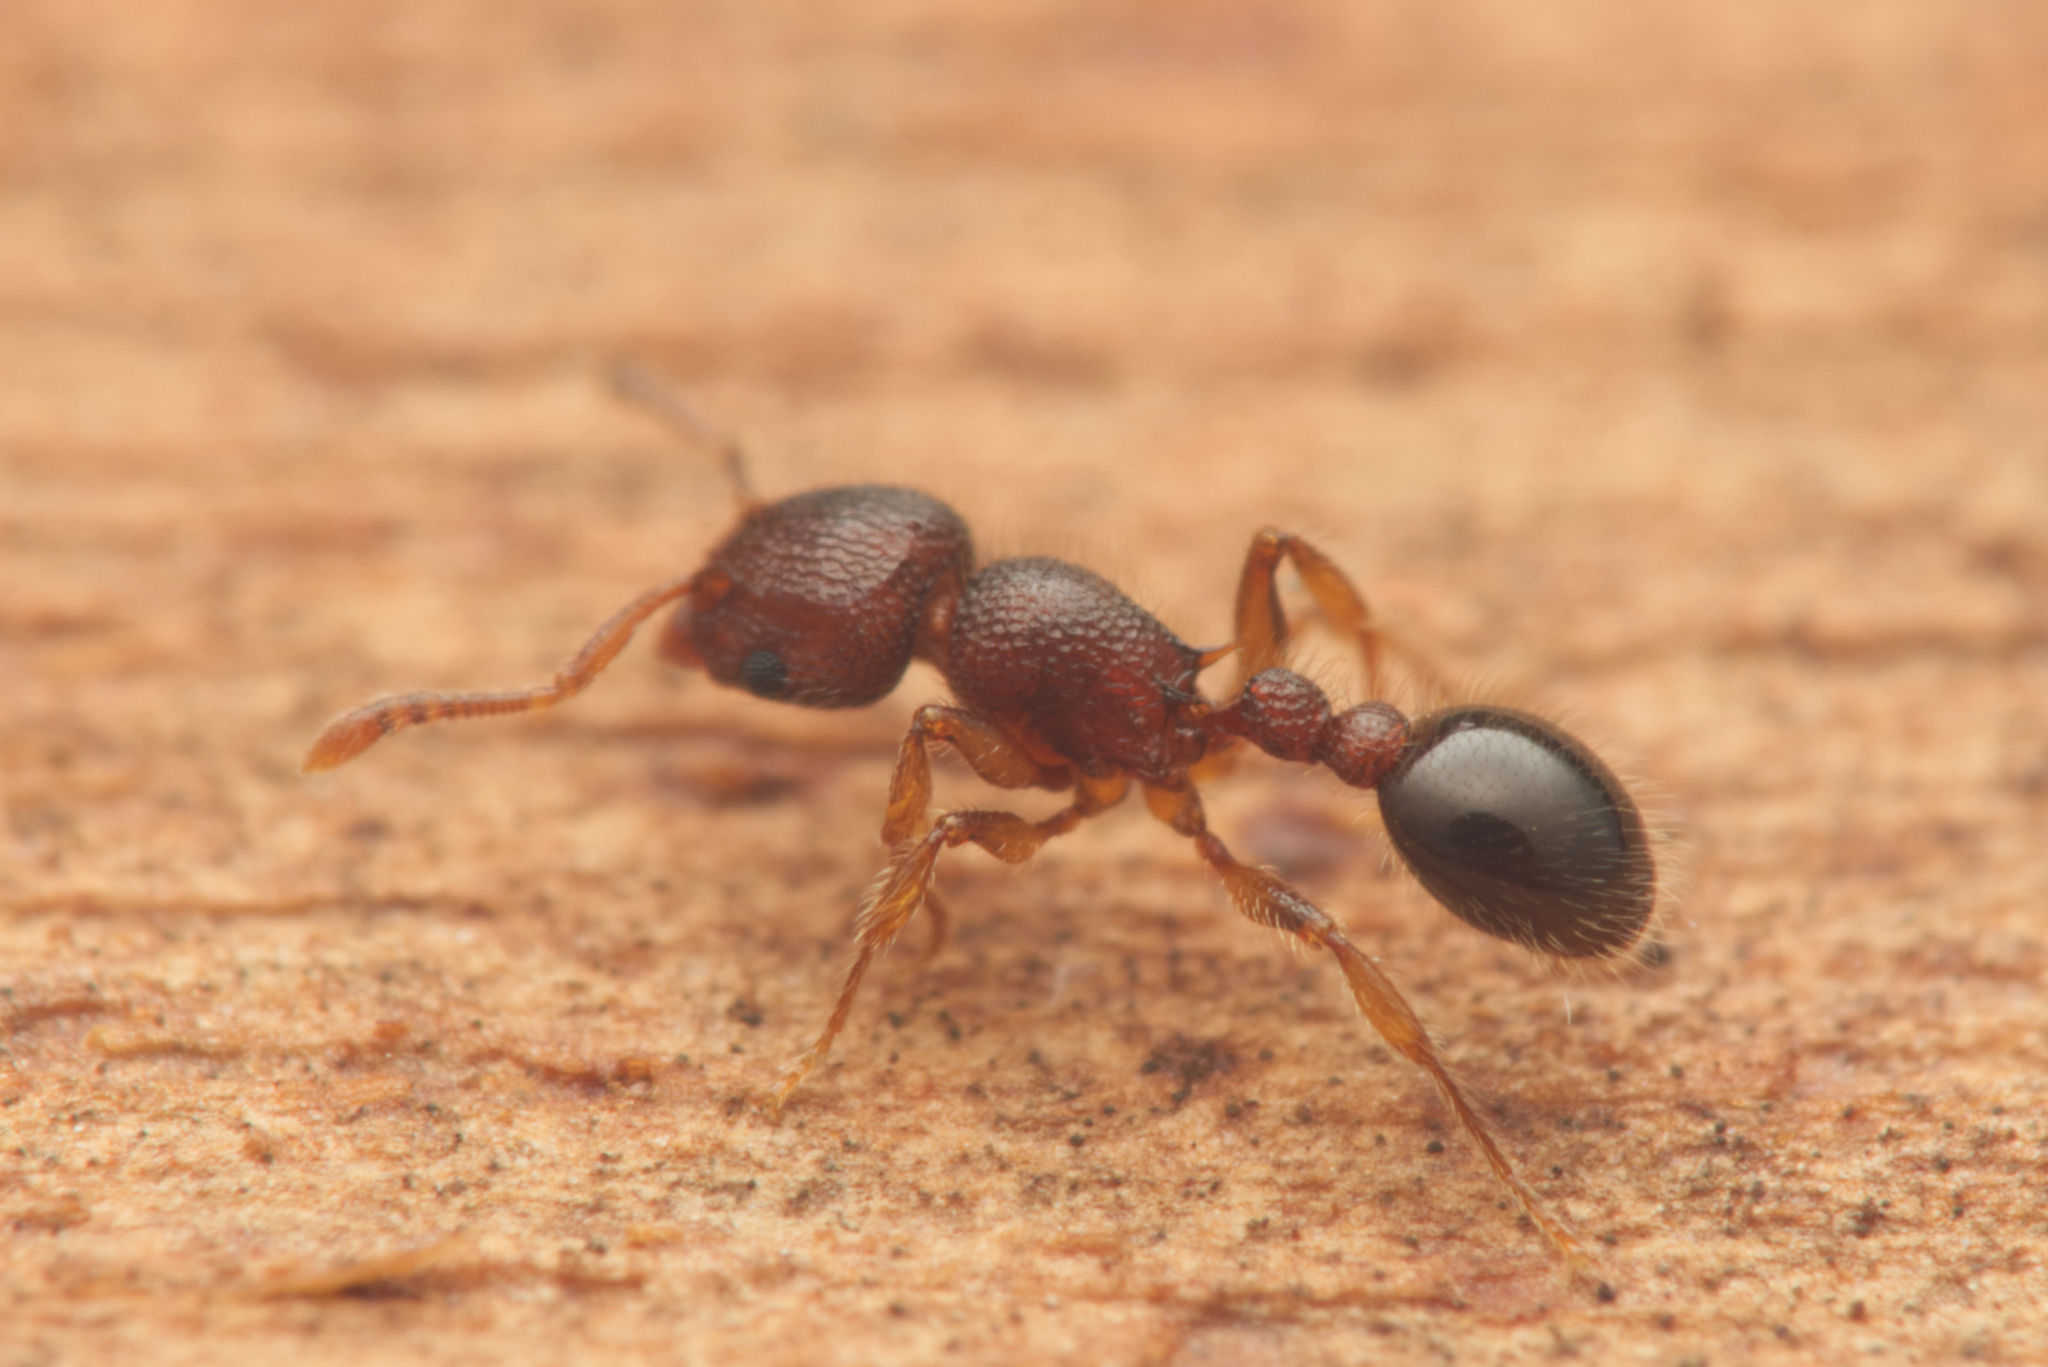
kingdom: Animalia
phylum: Arthropoda
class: Insecta
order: Hymenoptera
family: Formicidae
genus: Tetramorium
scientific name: Tetramorium lanuginosum
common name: Ant
